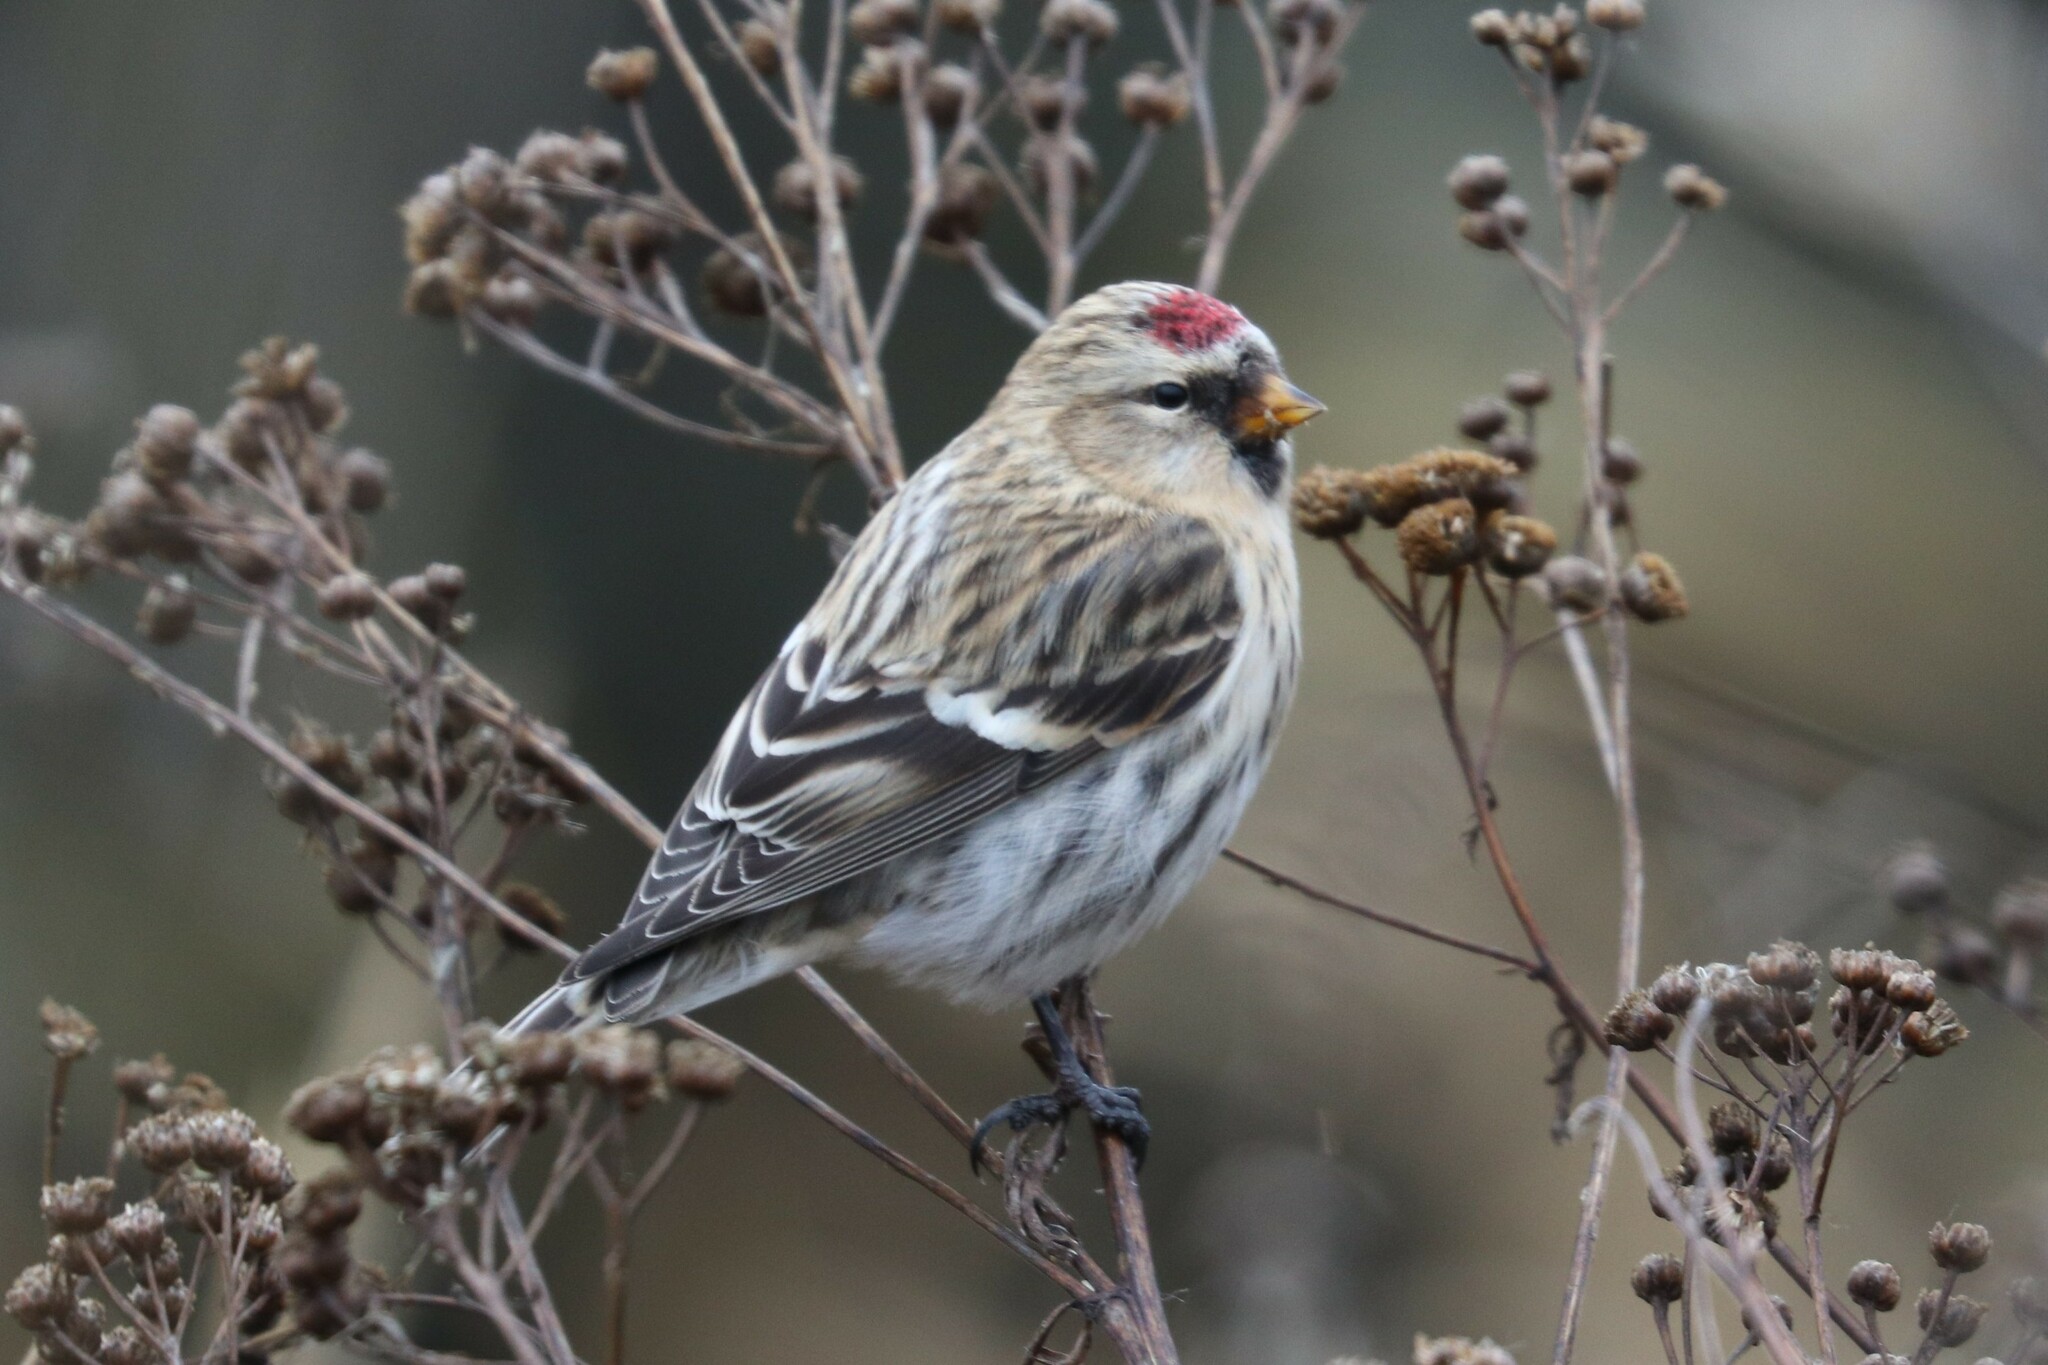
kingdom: Animalia
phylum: Chordata
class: Aves
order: Passeriformes
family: Fringillidae
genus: Acanthis
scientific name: Acanthis flammea
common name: Common redpoll
